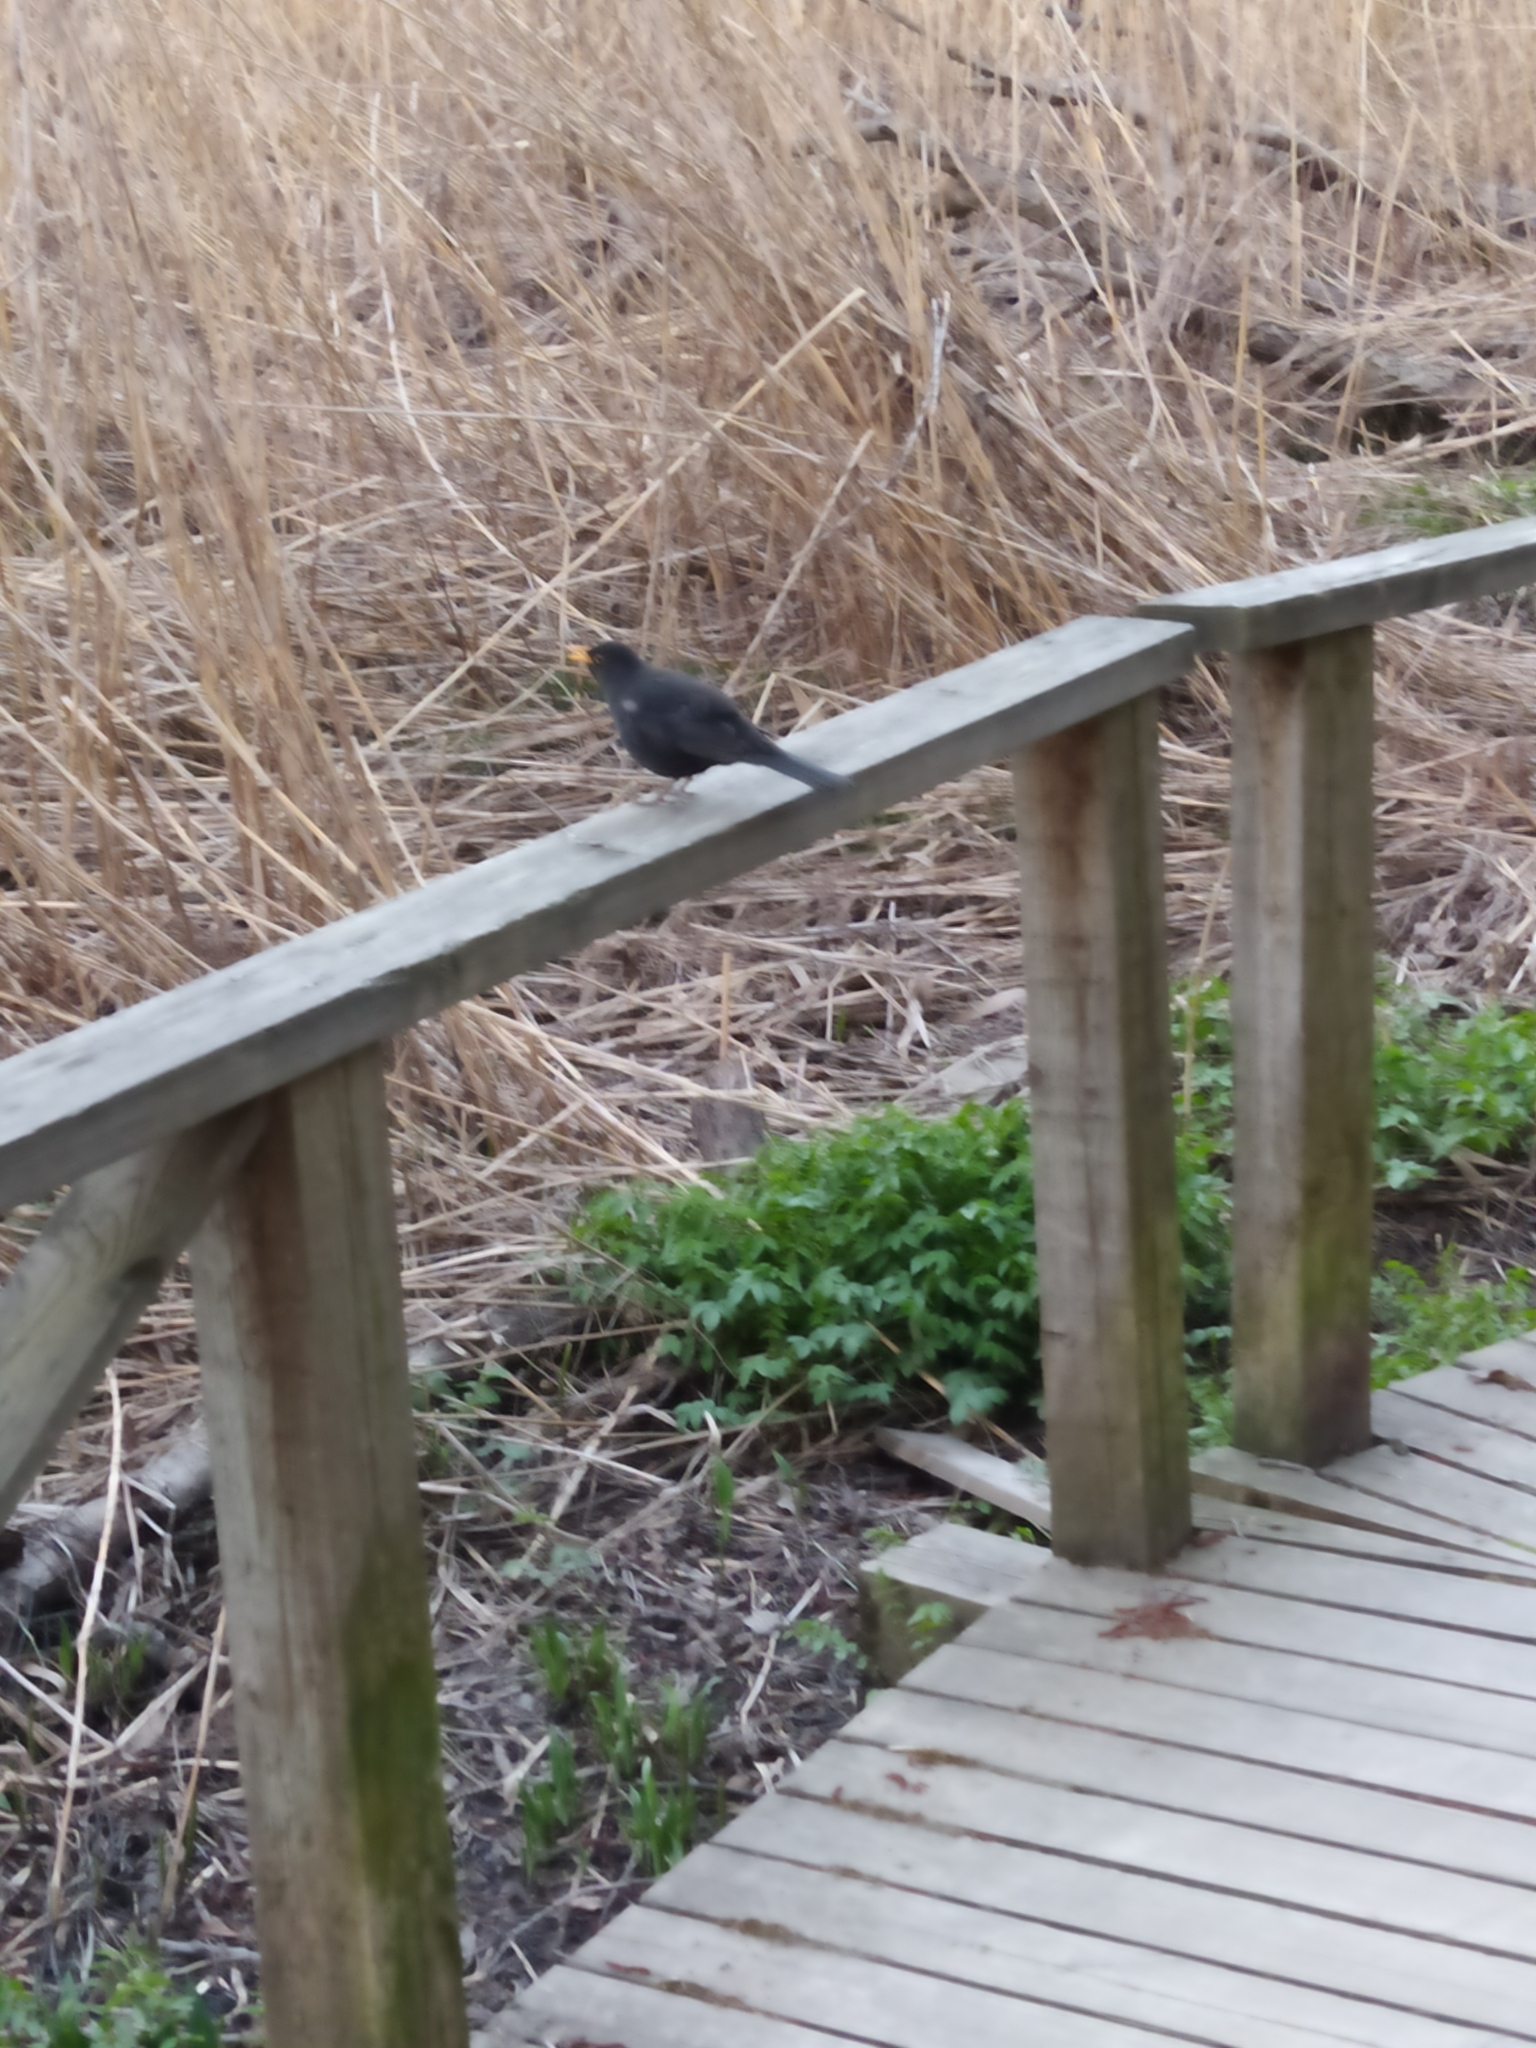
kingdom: Animalia
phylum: Chordata
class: Aves
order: Passeriformes
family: Turdidae
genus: Turdus
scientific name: Turdus merula
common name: Common blackbird
